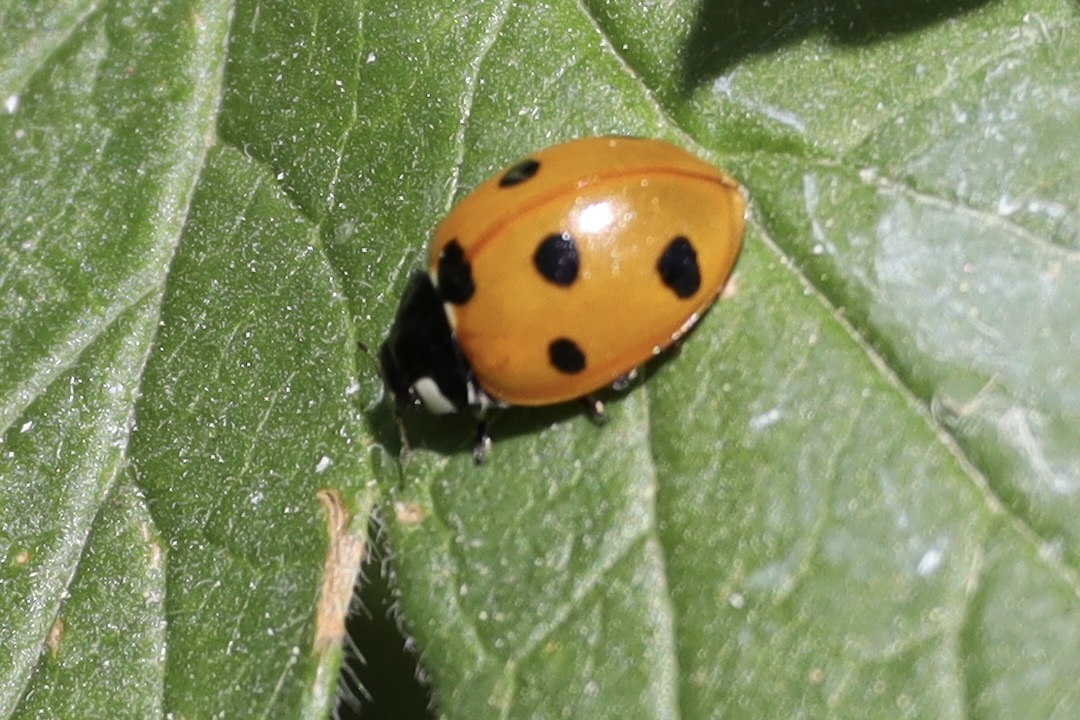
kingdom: Animalia
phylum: Arthropoda
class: Insecta
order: Coleoptera
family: Coccinellidae
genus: Coccinella
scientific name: Coccinella septempunctata
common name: Sevenspotted lady beetle
